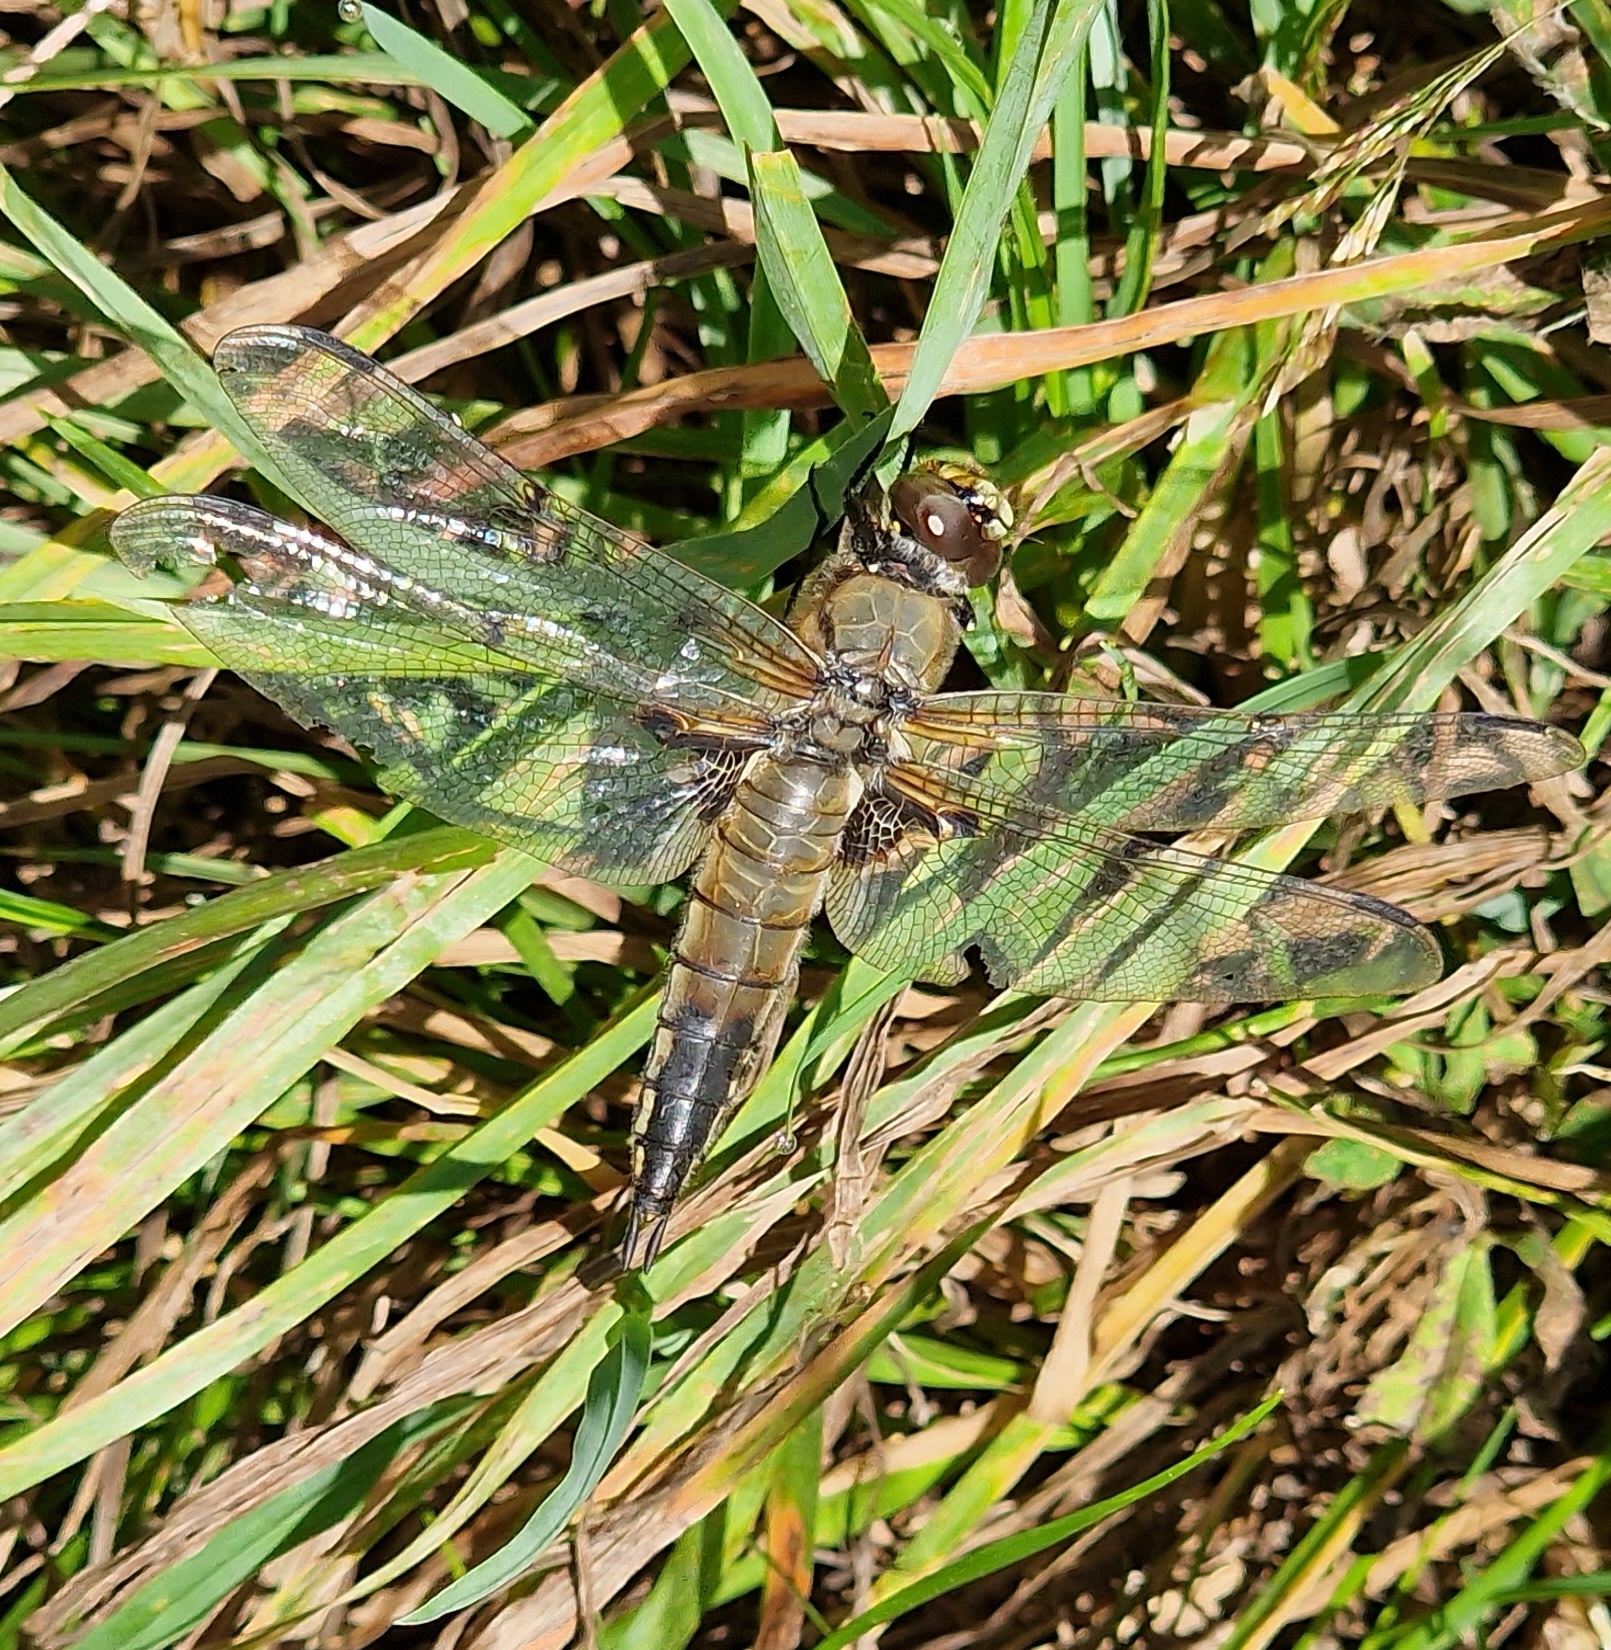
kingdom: Animalia
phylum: Arthropoda
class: Insecta
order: Odonata
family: Libellulidae
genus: Libellula
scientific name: Libellula quadrimaculata
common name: Four-spotted chaser
